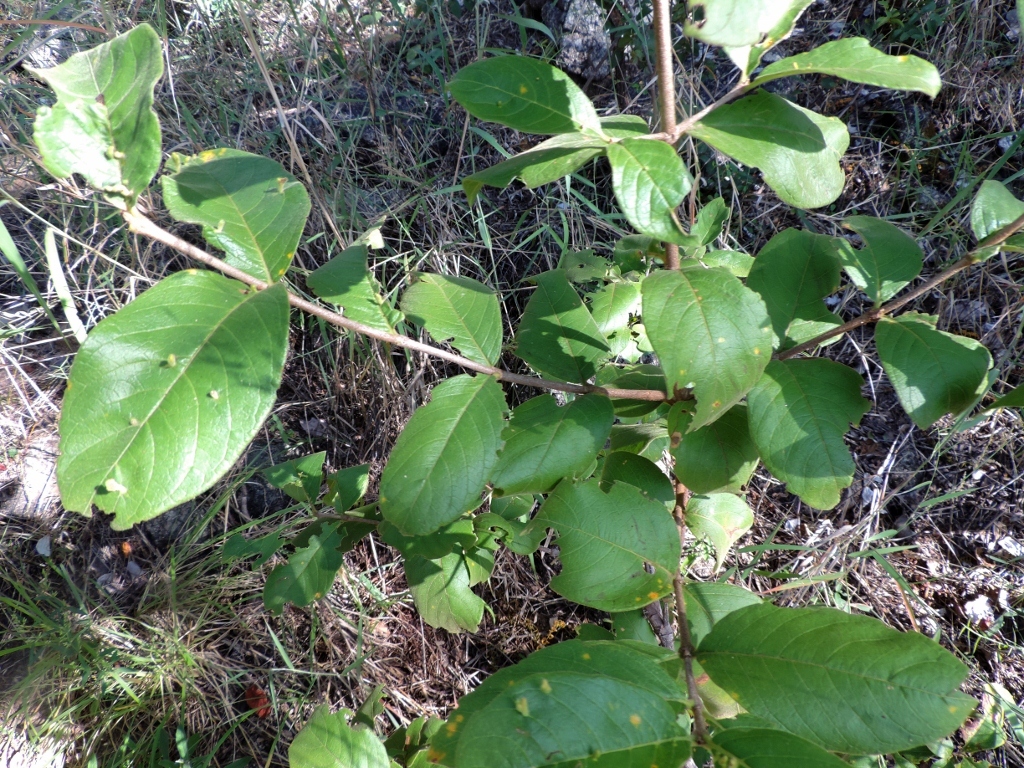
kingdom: Plantae
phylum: Tracheophyta
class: Magnoliopsida
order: Gentianales
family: Rubiaceae
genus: Vangueria
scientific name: Vangueria infausta
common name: Medlar
